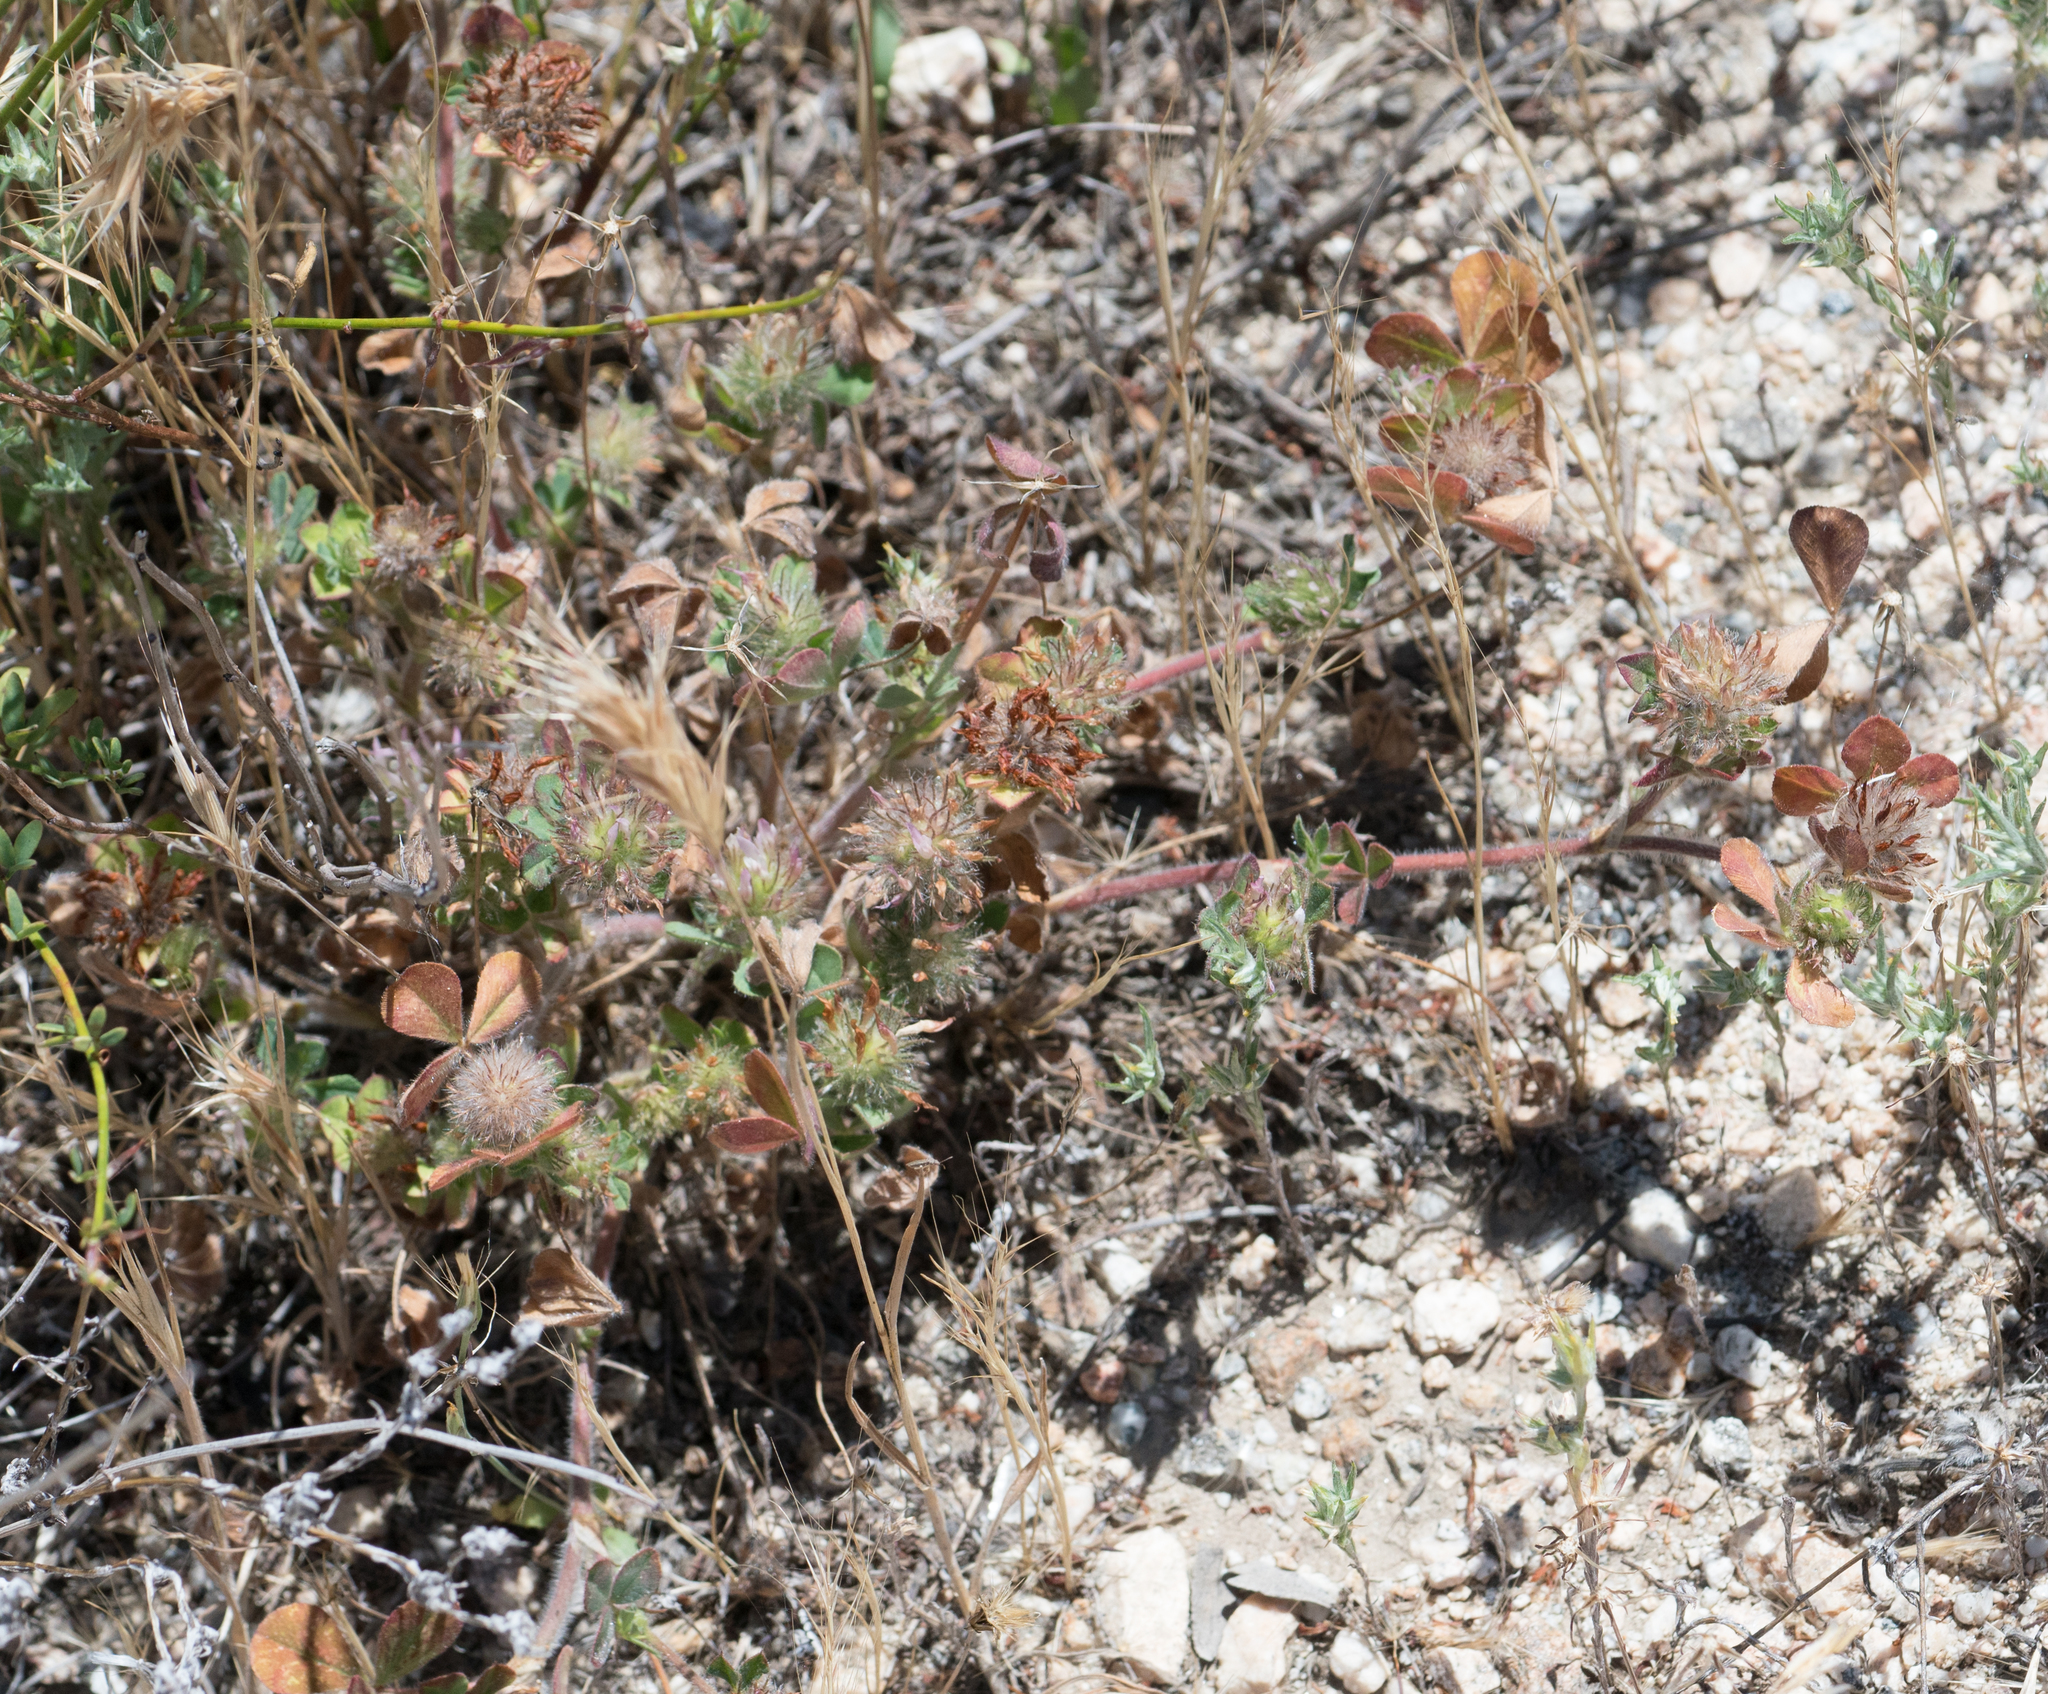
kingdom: Plantae
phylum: Tracheophyta
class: Magnoliopsida
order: Fabales
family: Fabaceae
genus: Trifolium
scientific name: Trifolium hirtum
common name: Rose clover
